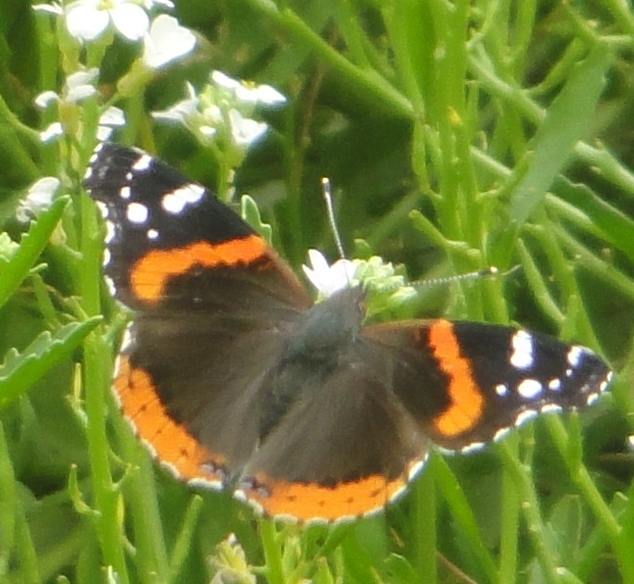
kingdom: Animalia
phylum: Arthropoda
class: Insecta
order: Lepidoptera
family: Nymphalidae
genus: Vanessa
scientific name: Vanessa atalanta
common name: Red admiral
